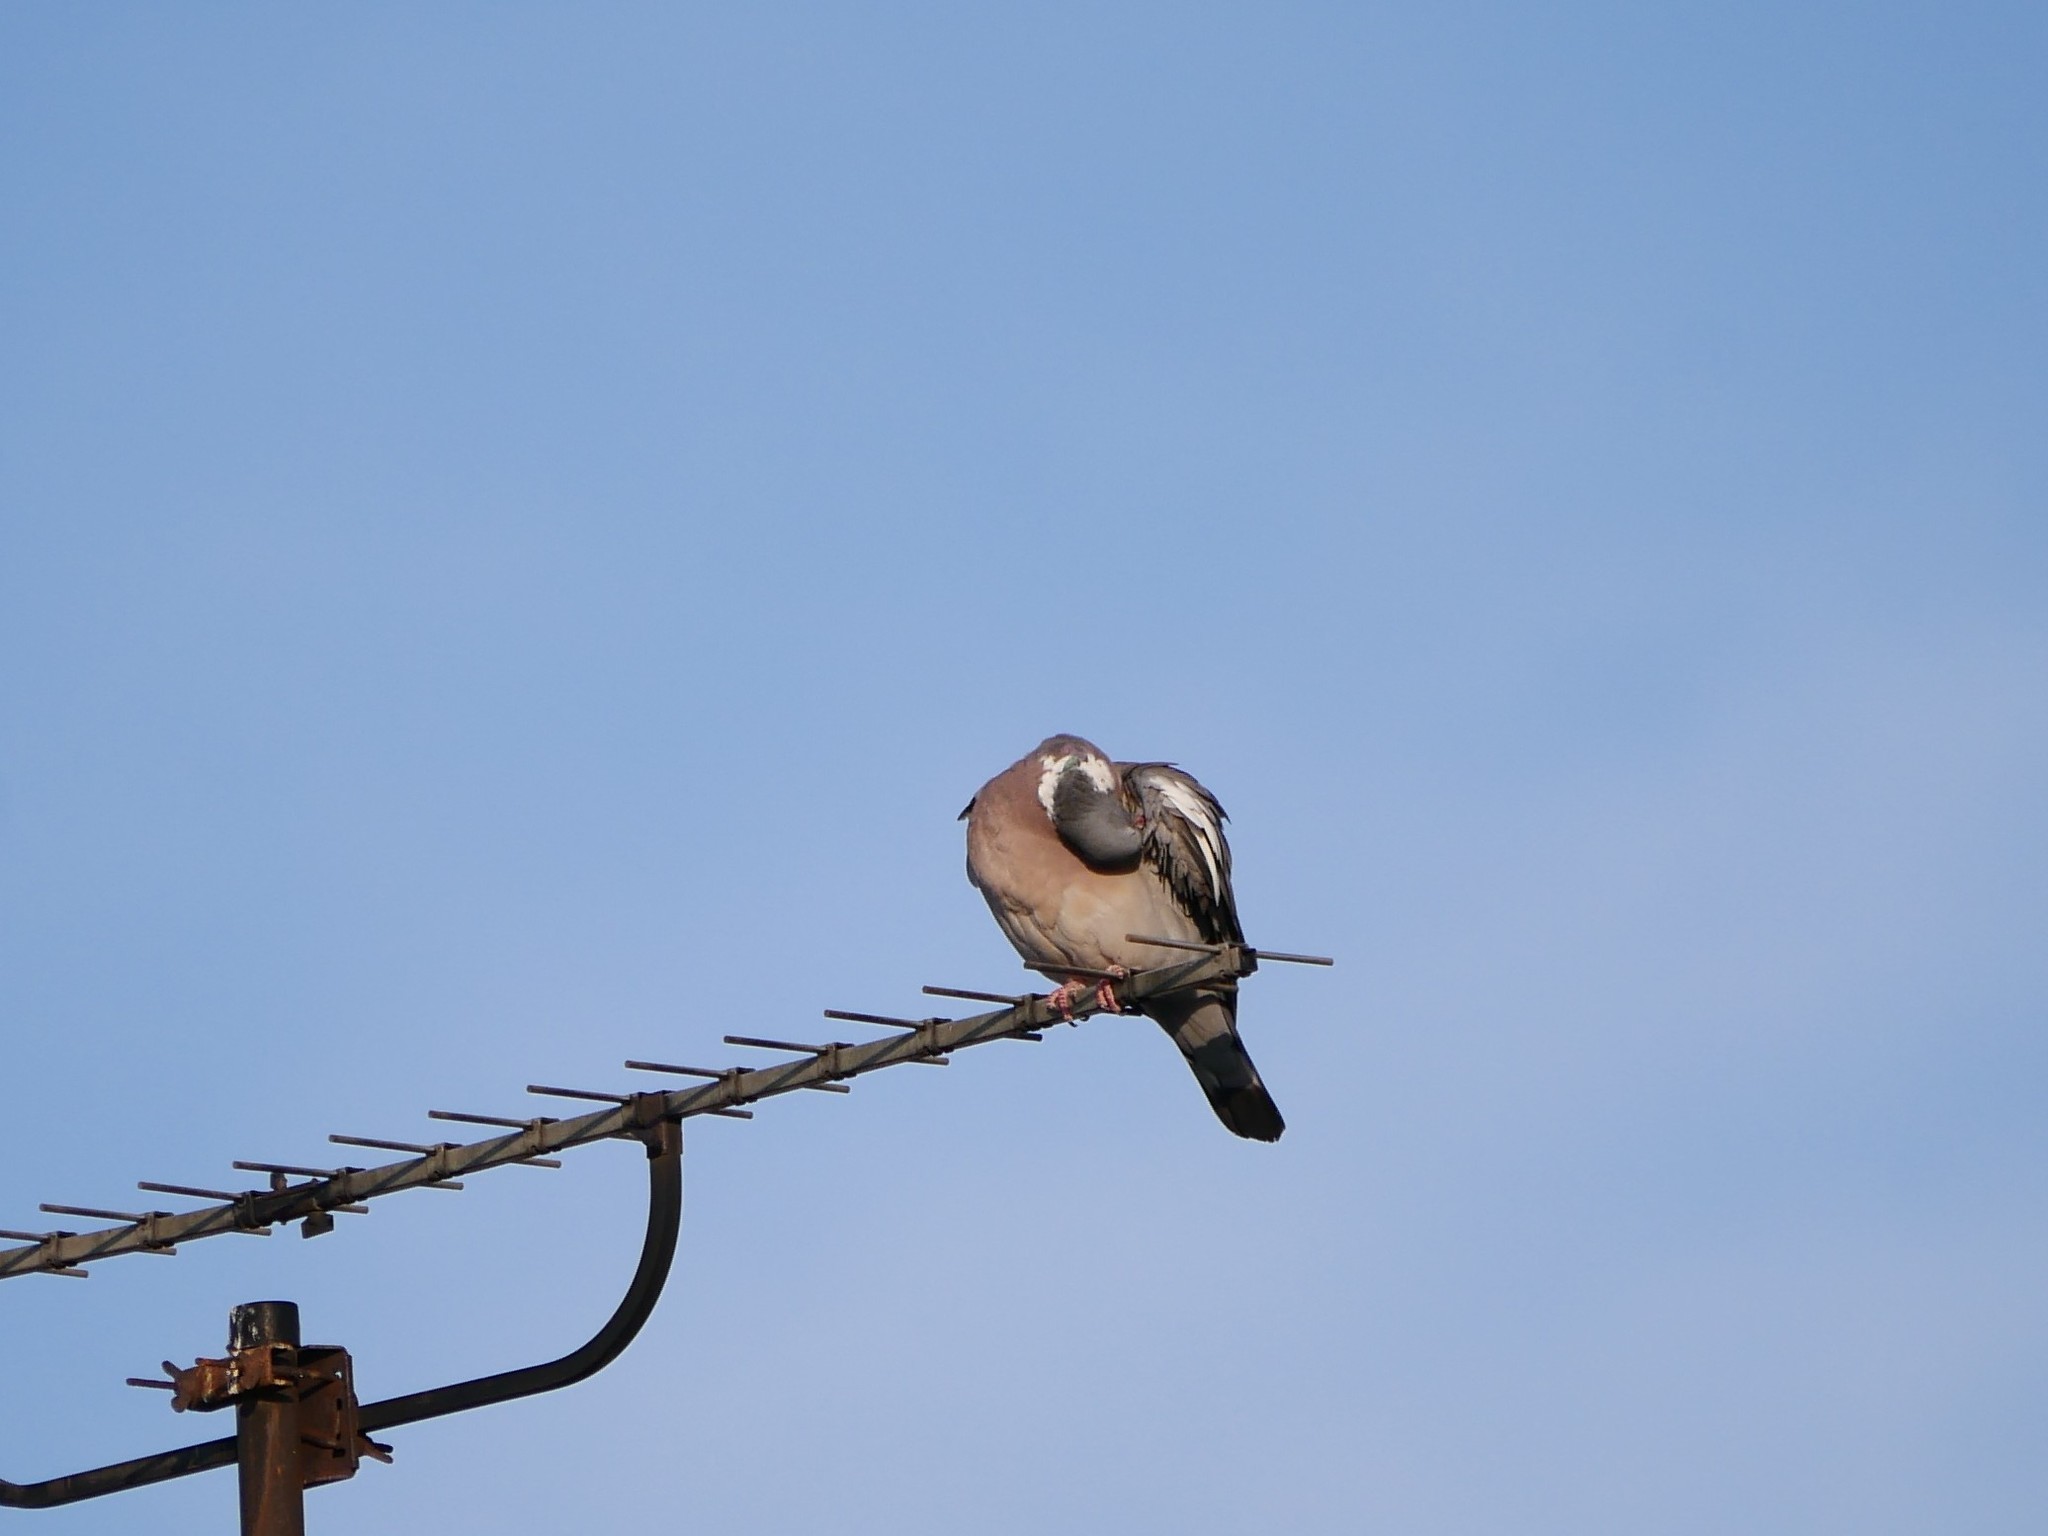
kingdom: Animalia
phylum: Chordata
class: Aves
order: Columbiformes
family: Columbidae
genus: Columba
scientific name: Columba palumbus
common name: Common wood pigeon
